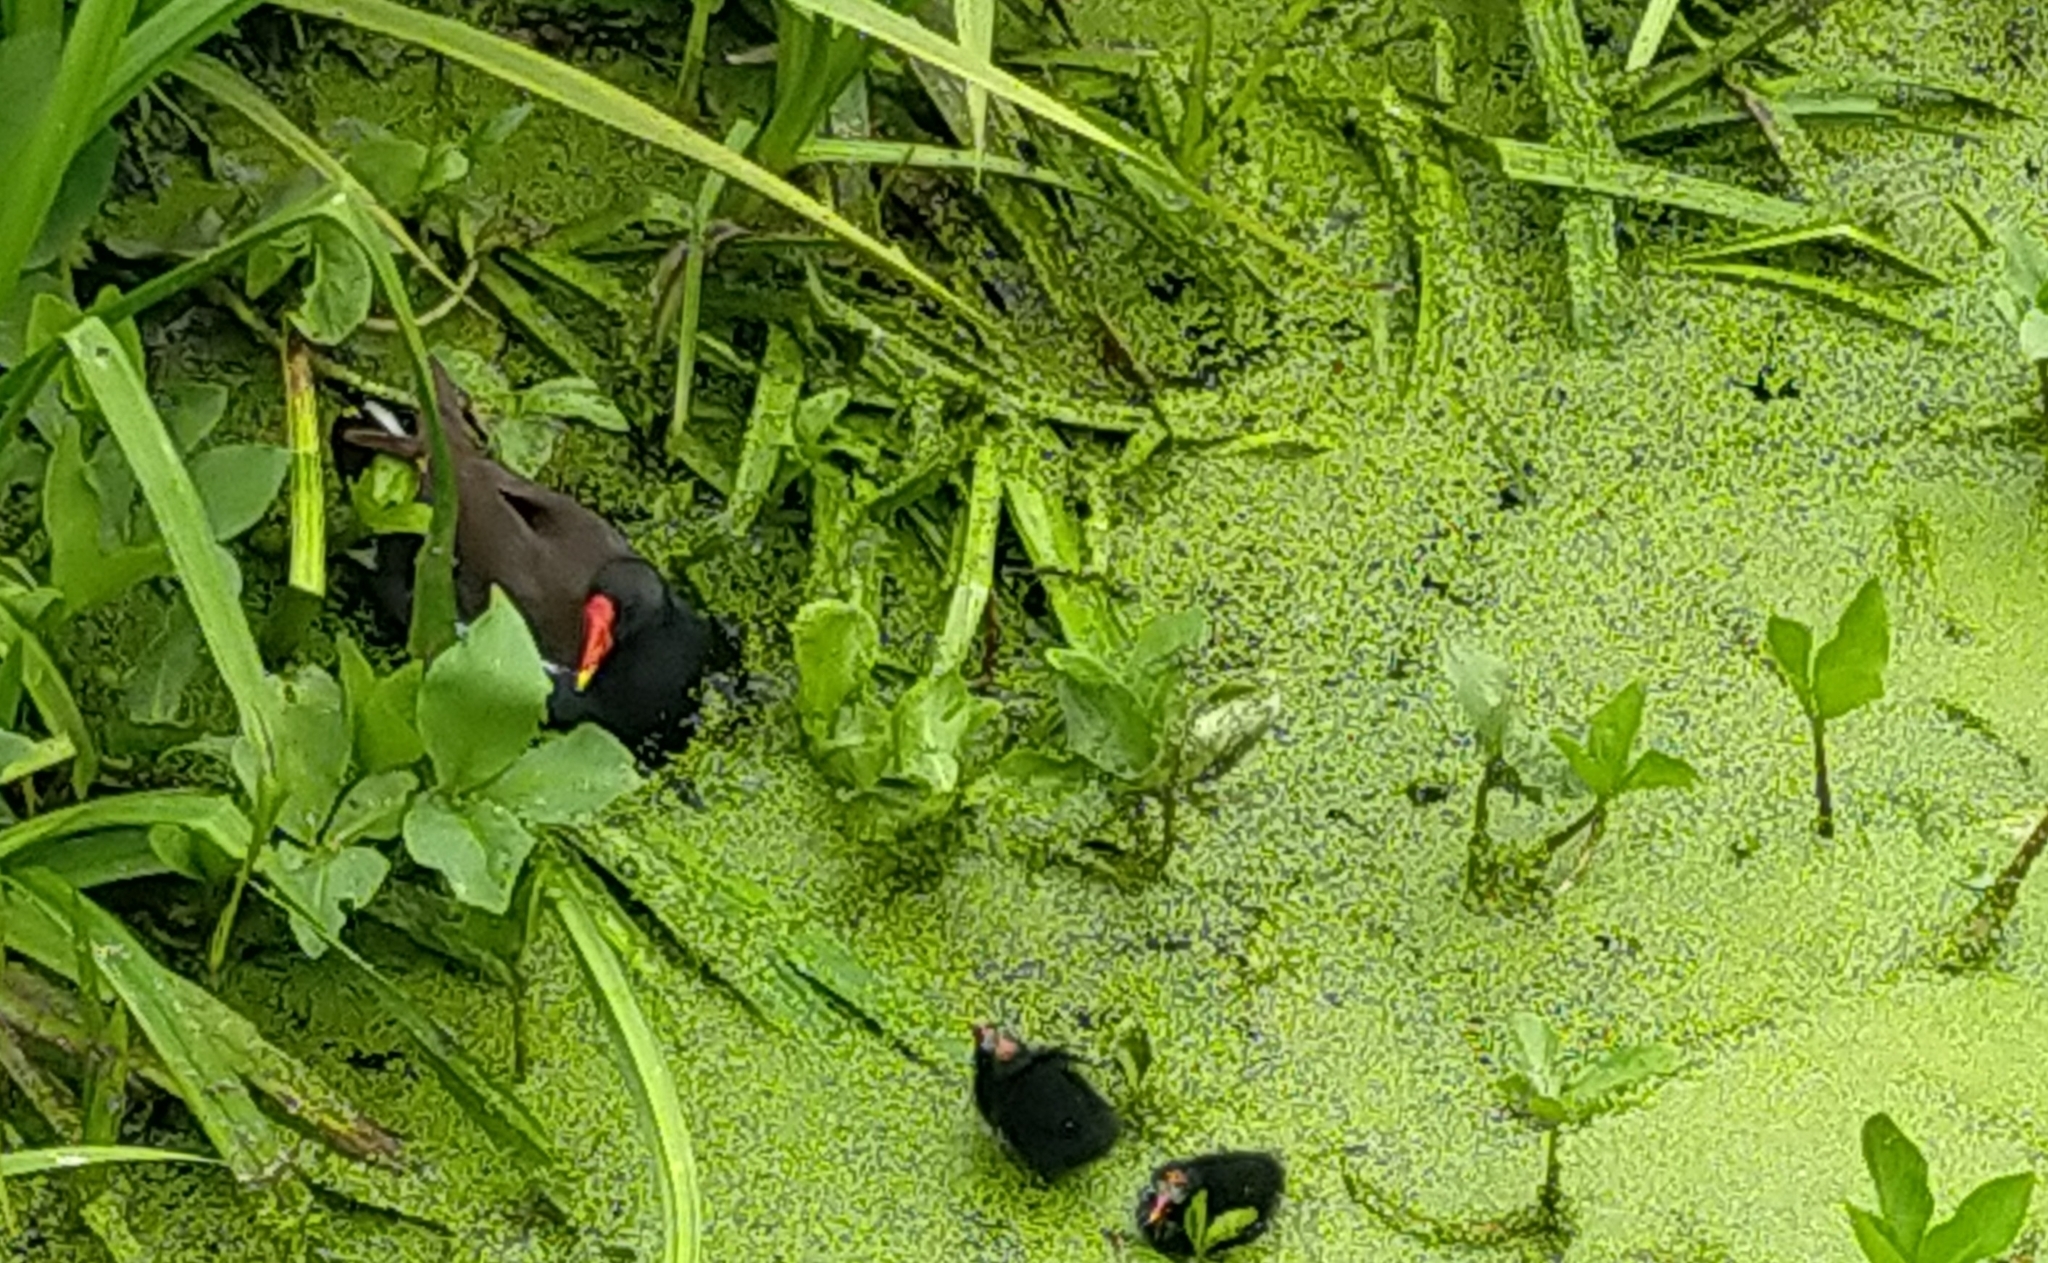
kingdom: Animalia
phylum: Chordata
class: Aves
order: Gruiformes
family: Rallidae
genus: Gallinula
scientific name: Gallinula chloropus
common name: Common moorhen
